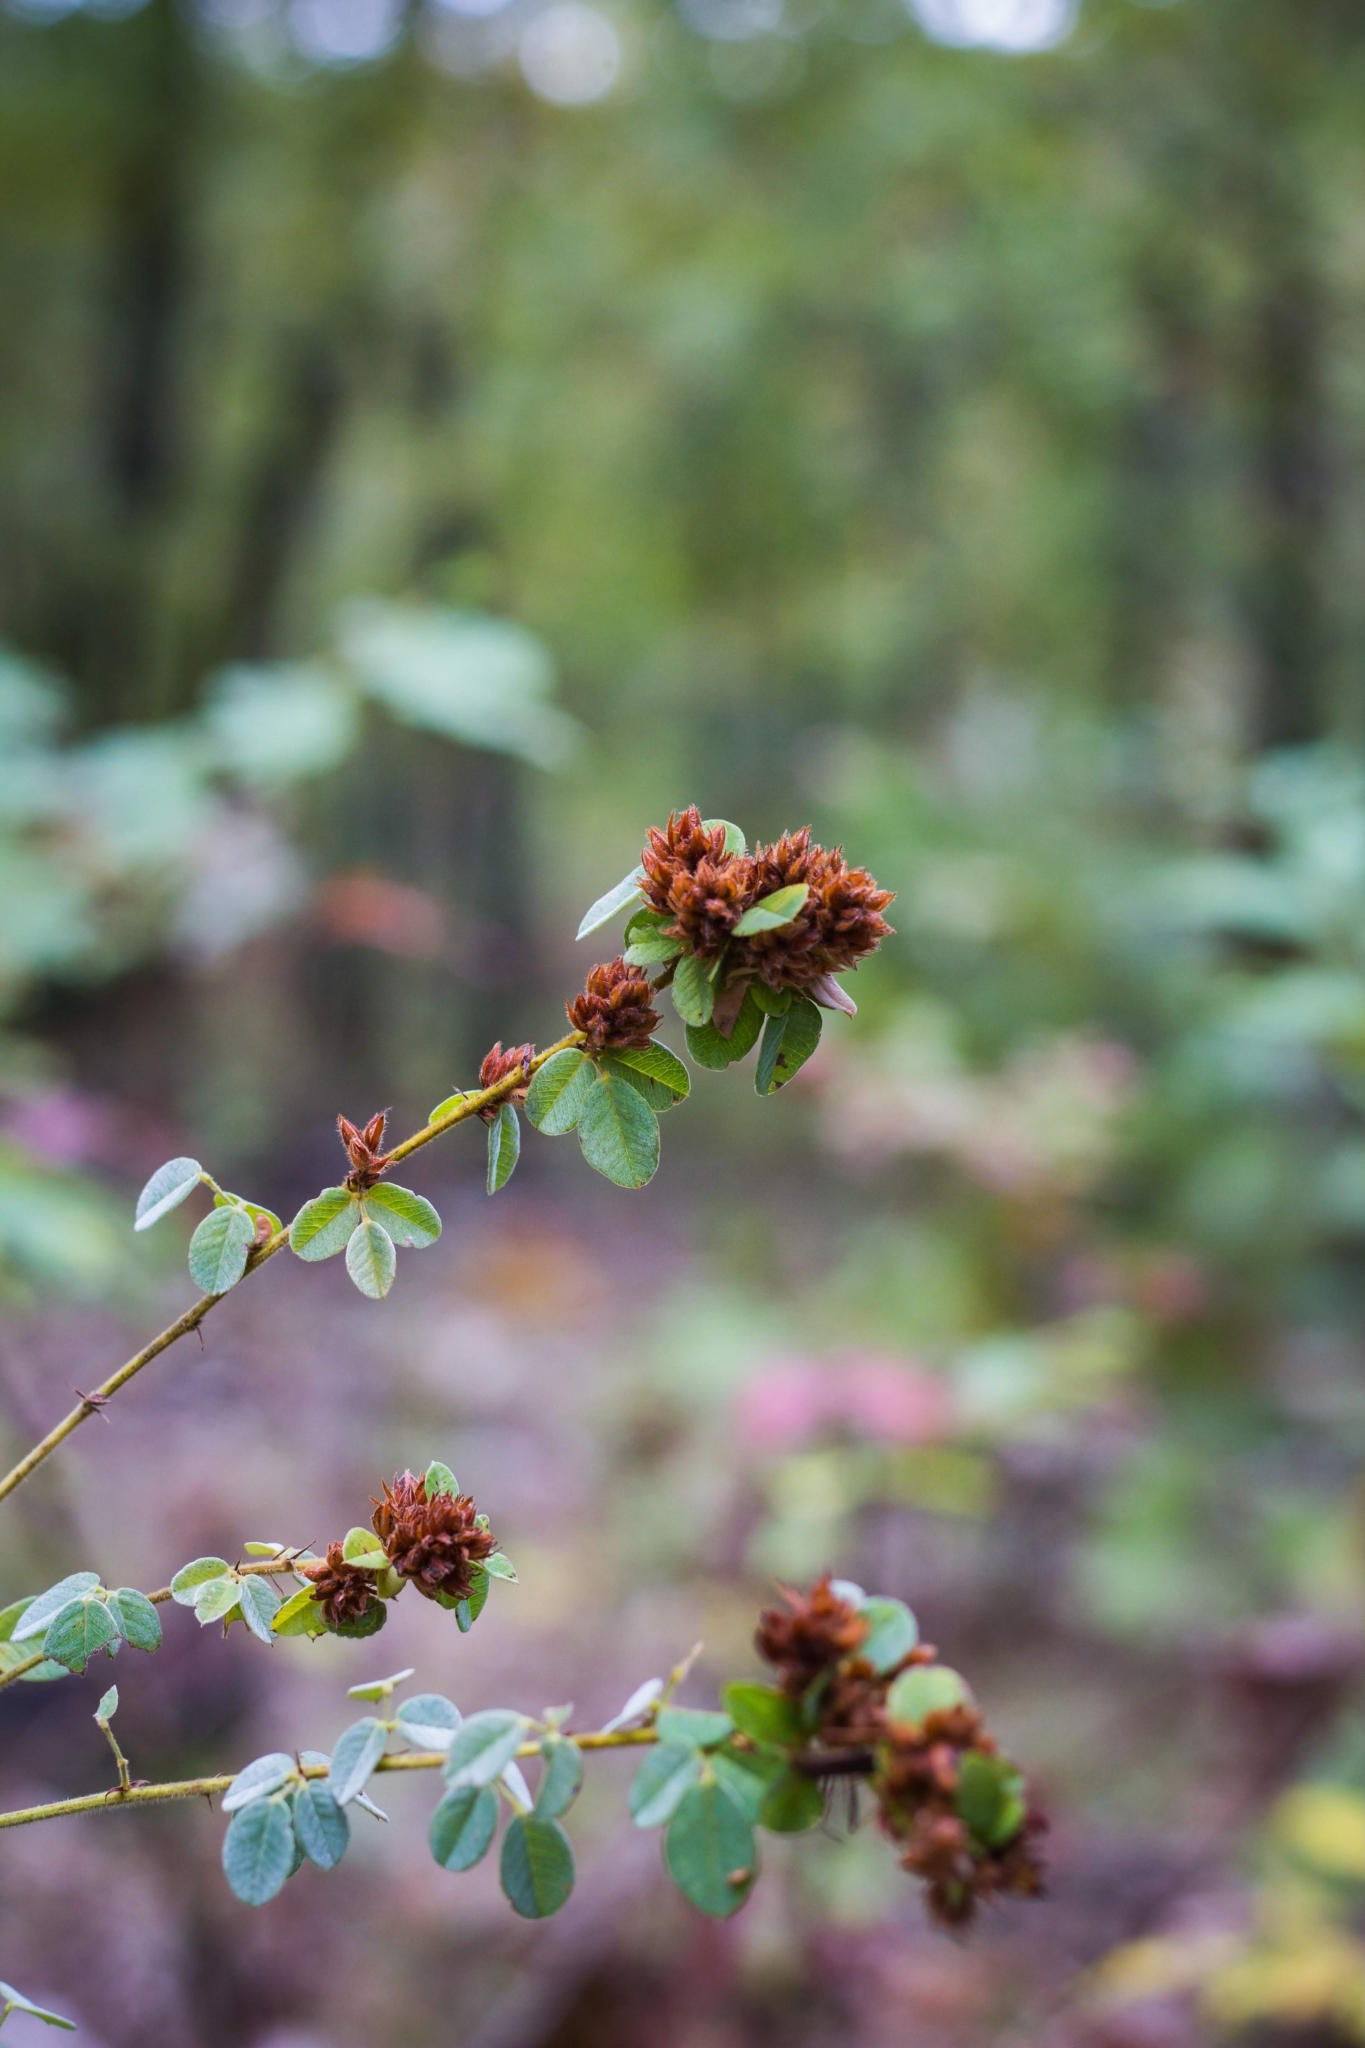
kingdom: Plantae
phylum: Tracheophyta
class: Magnoliopsida
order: Fabales
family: Fabaceae
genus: Lespedeza
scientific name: Lespedeza hirta
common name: Hairy lespedeza
